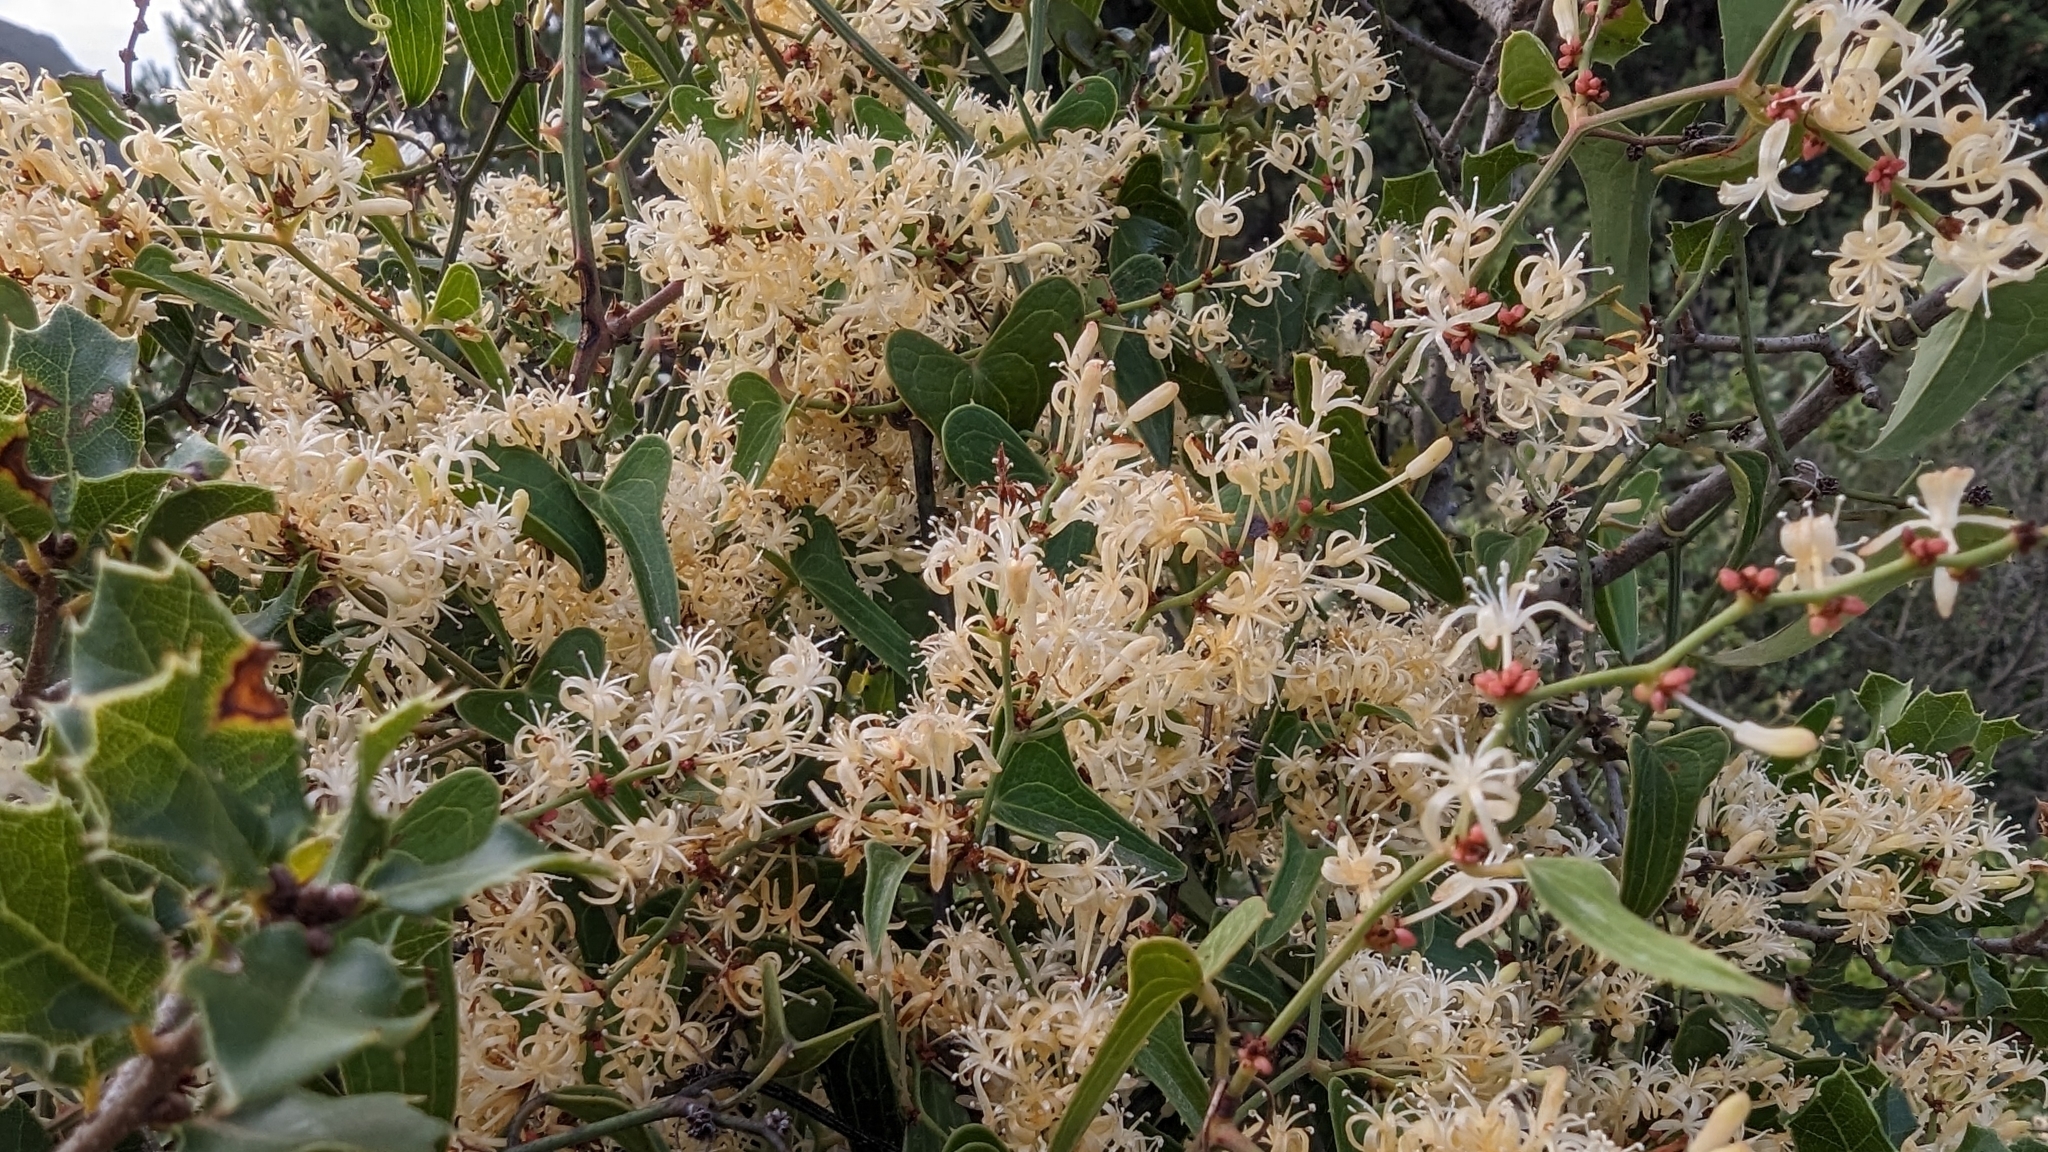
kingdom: Plantae
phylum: Tracheophyta
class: Liliopsida
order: Liliales
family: Smilacaceae
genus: Smilax
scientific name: Smilax aspera
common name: Common smilax
